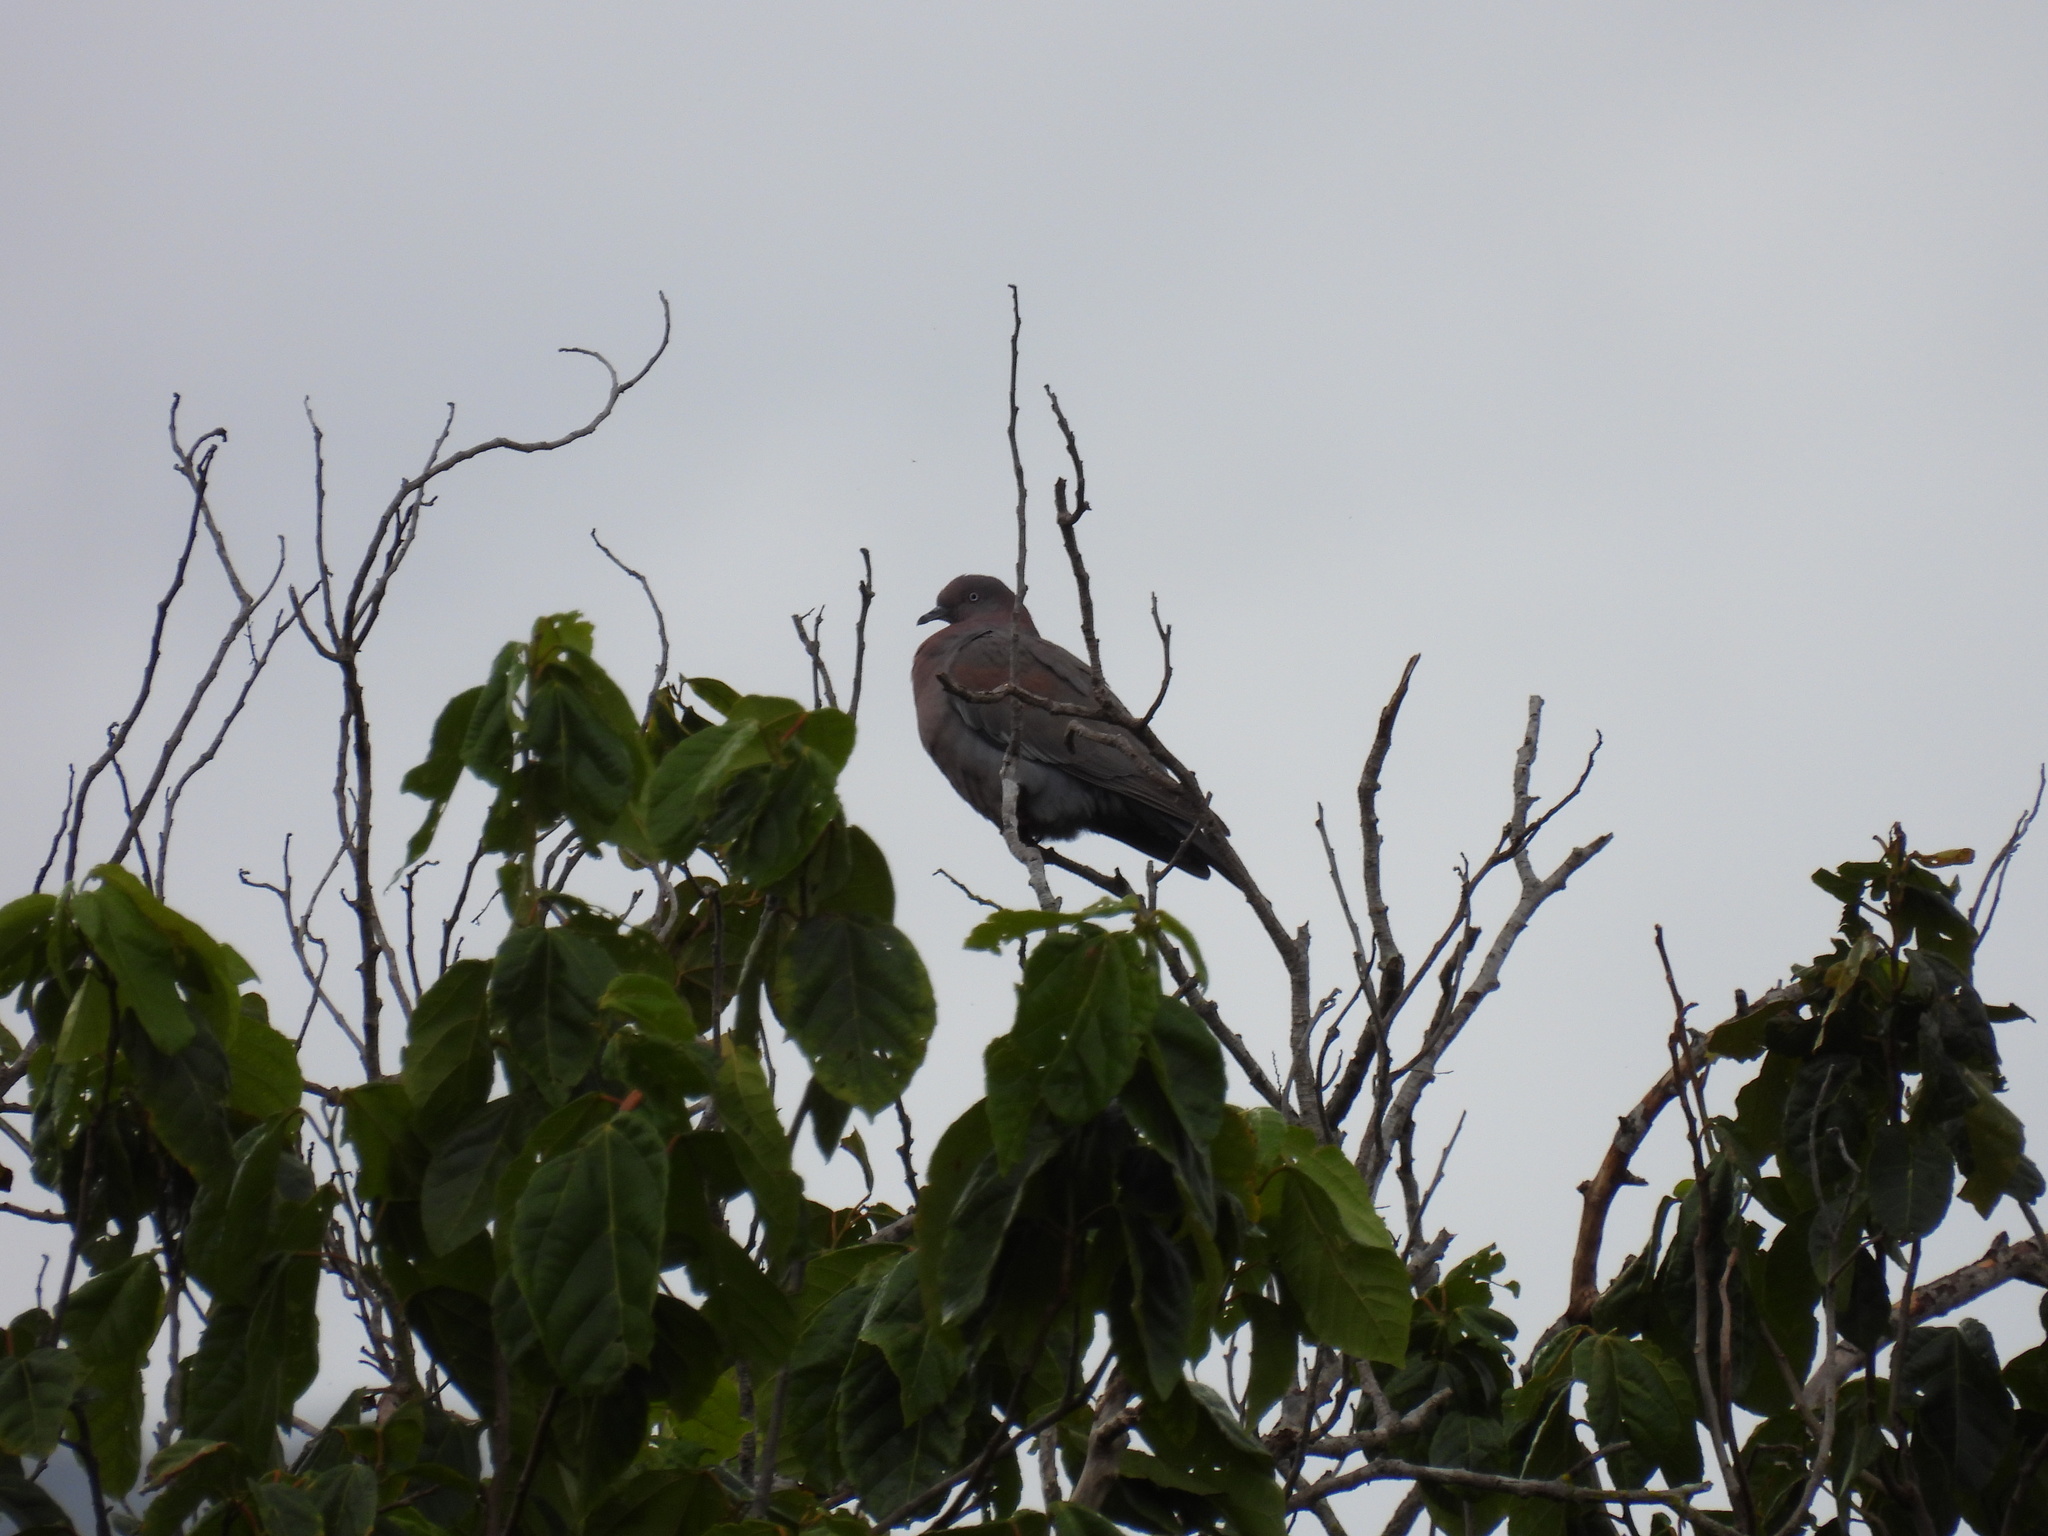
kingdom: Animalia
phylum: Chordata
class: Aves
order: Columbiformes
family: Columbidae
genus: Patagioenas
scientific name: Patagioenas inornata
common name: Plain pigeon
